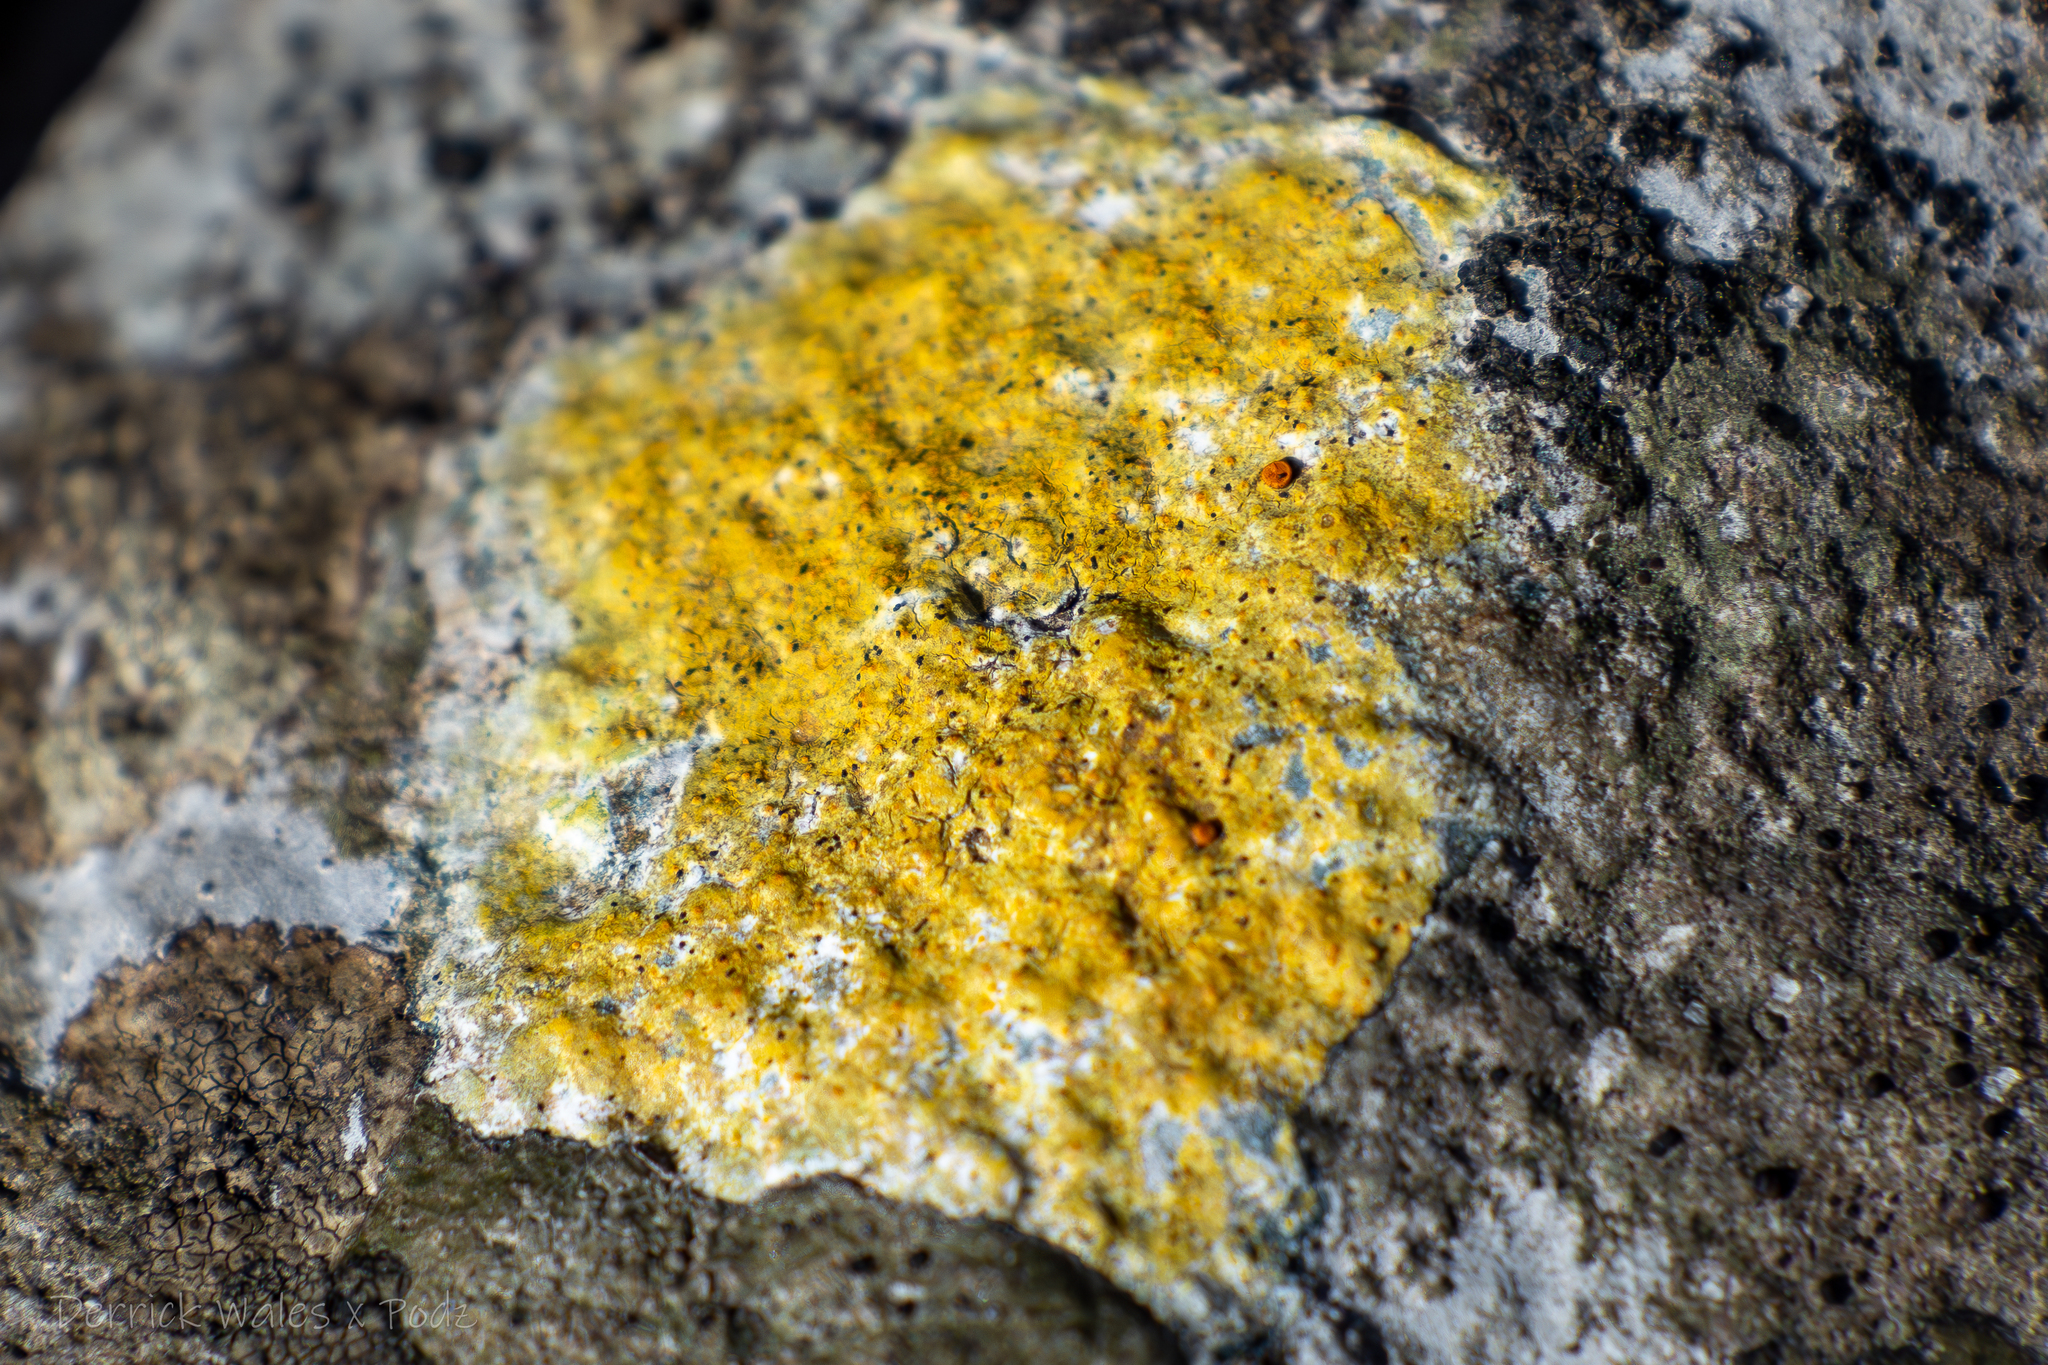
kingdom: Fungi
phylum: Ascomycota
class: Lecanoromycetes
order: Teloschistales
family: Teloschistaceae
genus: Gyalolechia
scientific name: Gyalolechia flavovirescens
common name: Sulphur firedot
